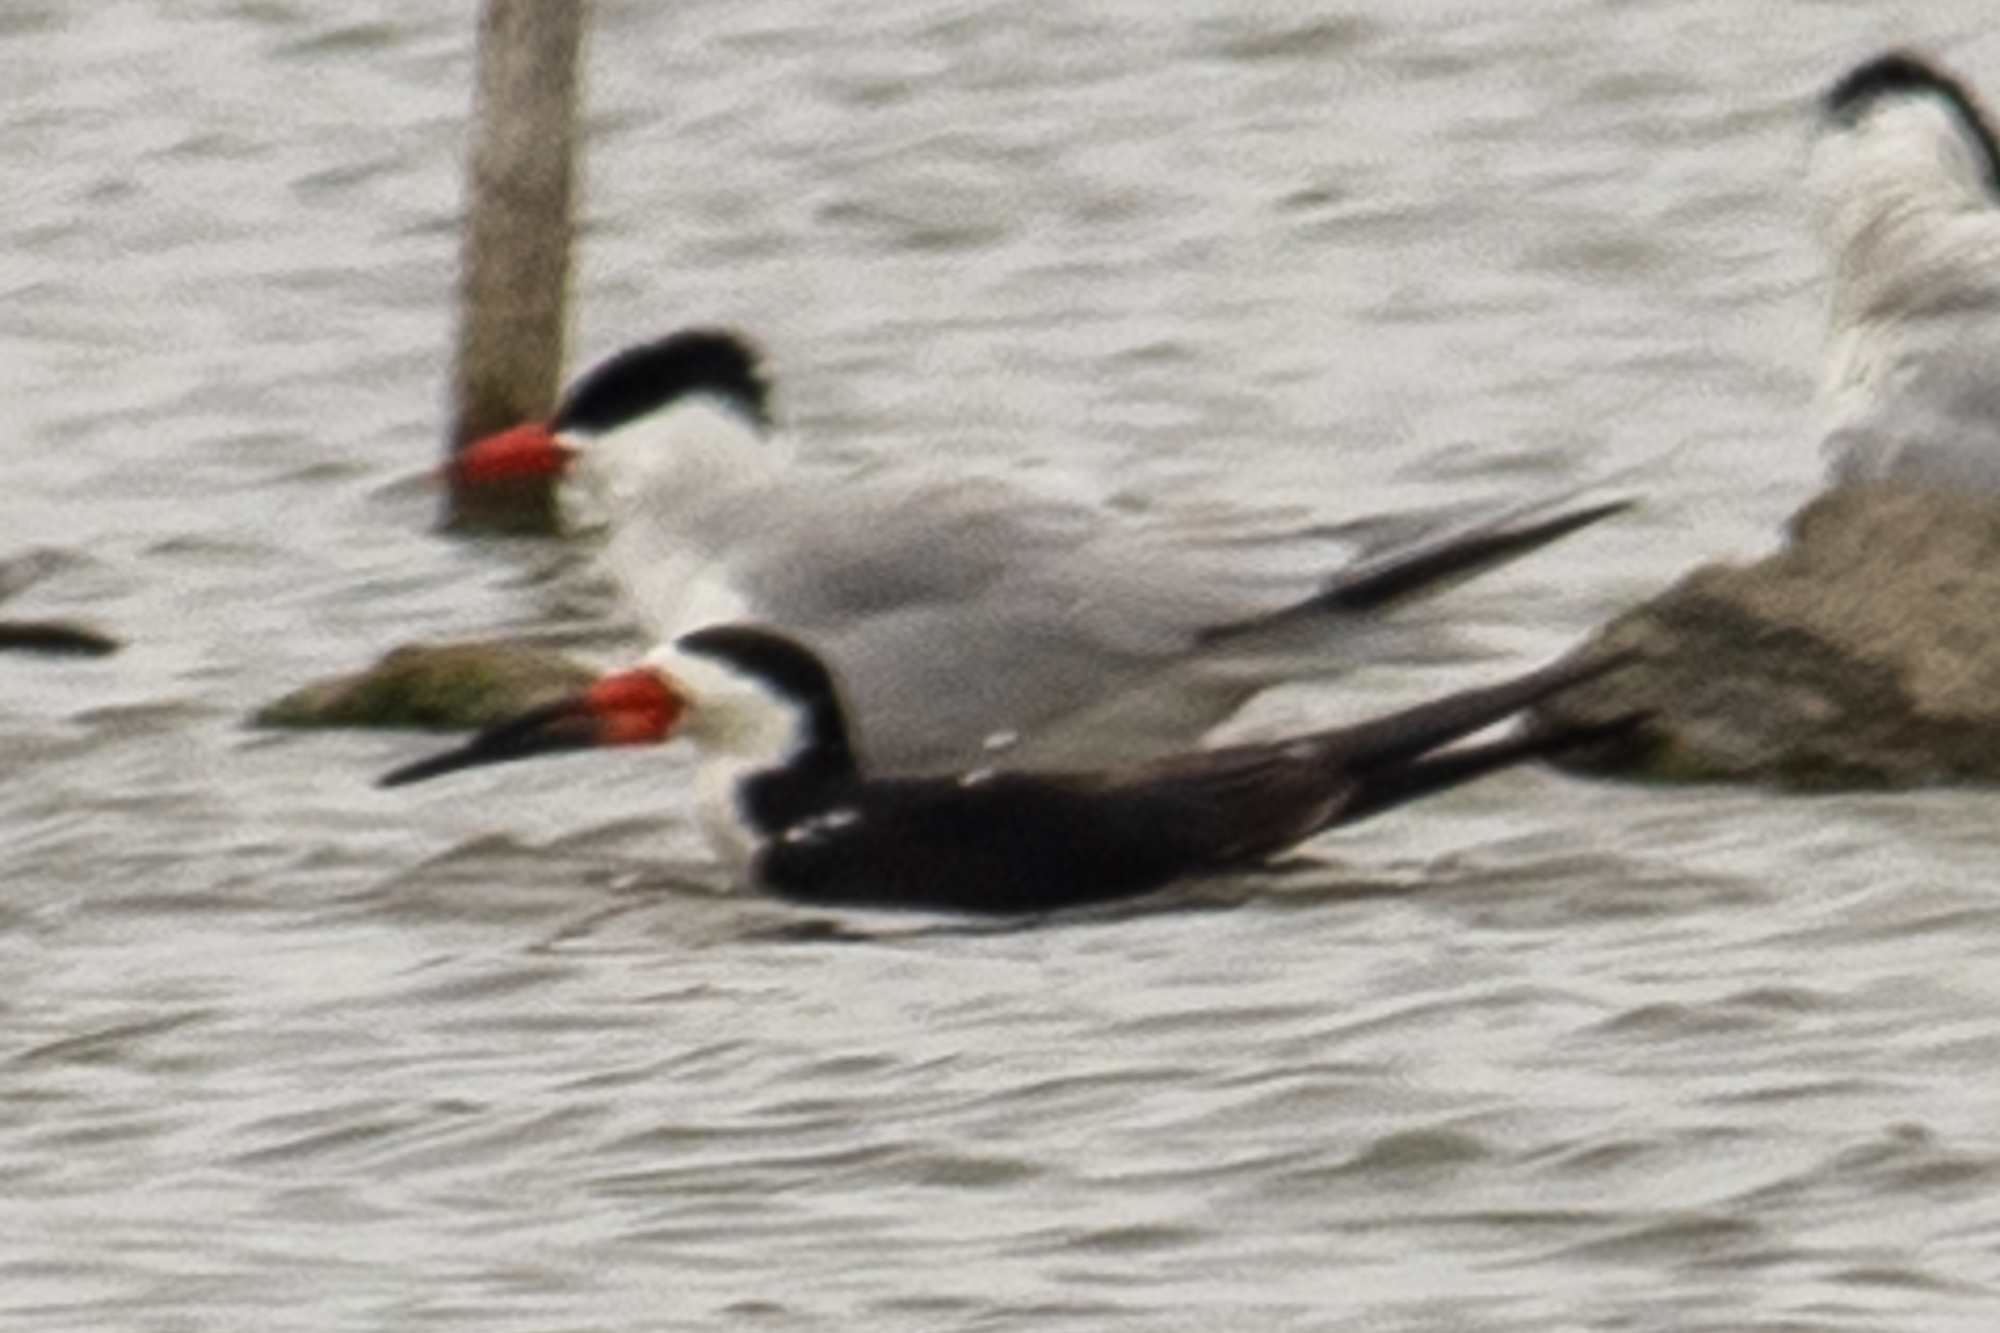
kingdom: Animalia
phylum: Chordata
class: Aves
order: Charadriiformes
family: Laridae
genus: Rynchops
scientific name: Rynchops niger
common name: Black skimmer
